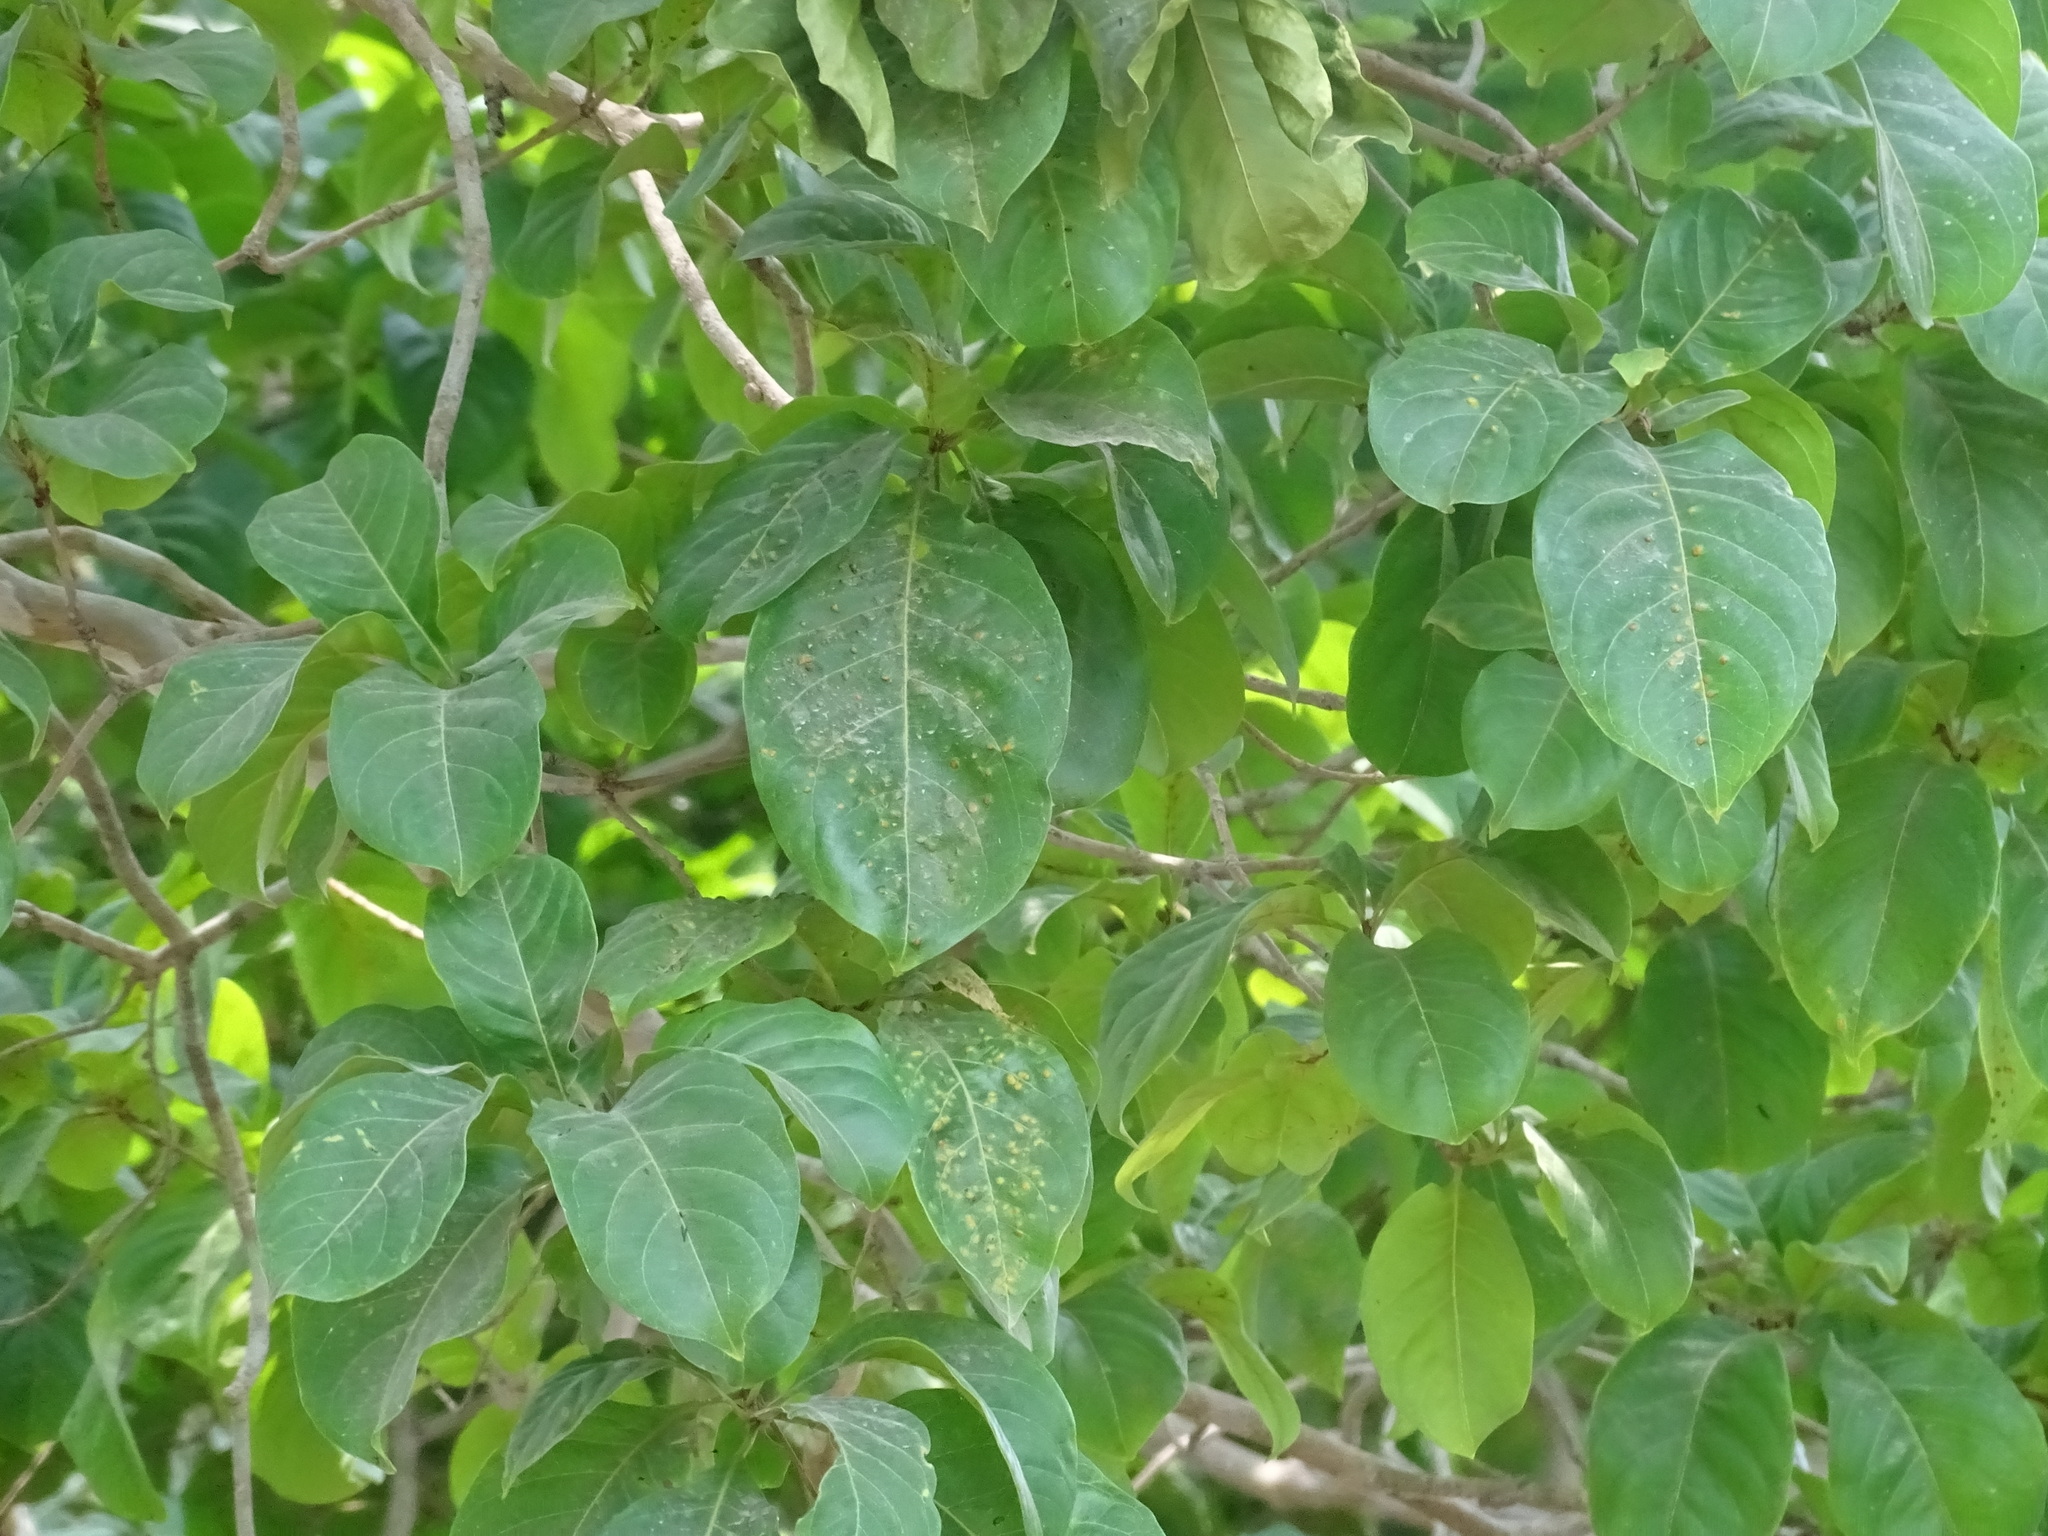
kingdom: Plantae
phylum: Tracheophyta
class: Magnoliopsida
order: Gentianales
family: Rubiaceae
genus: Guettarda
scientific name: Guettarda macrosperma
